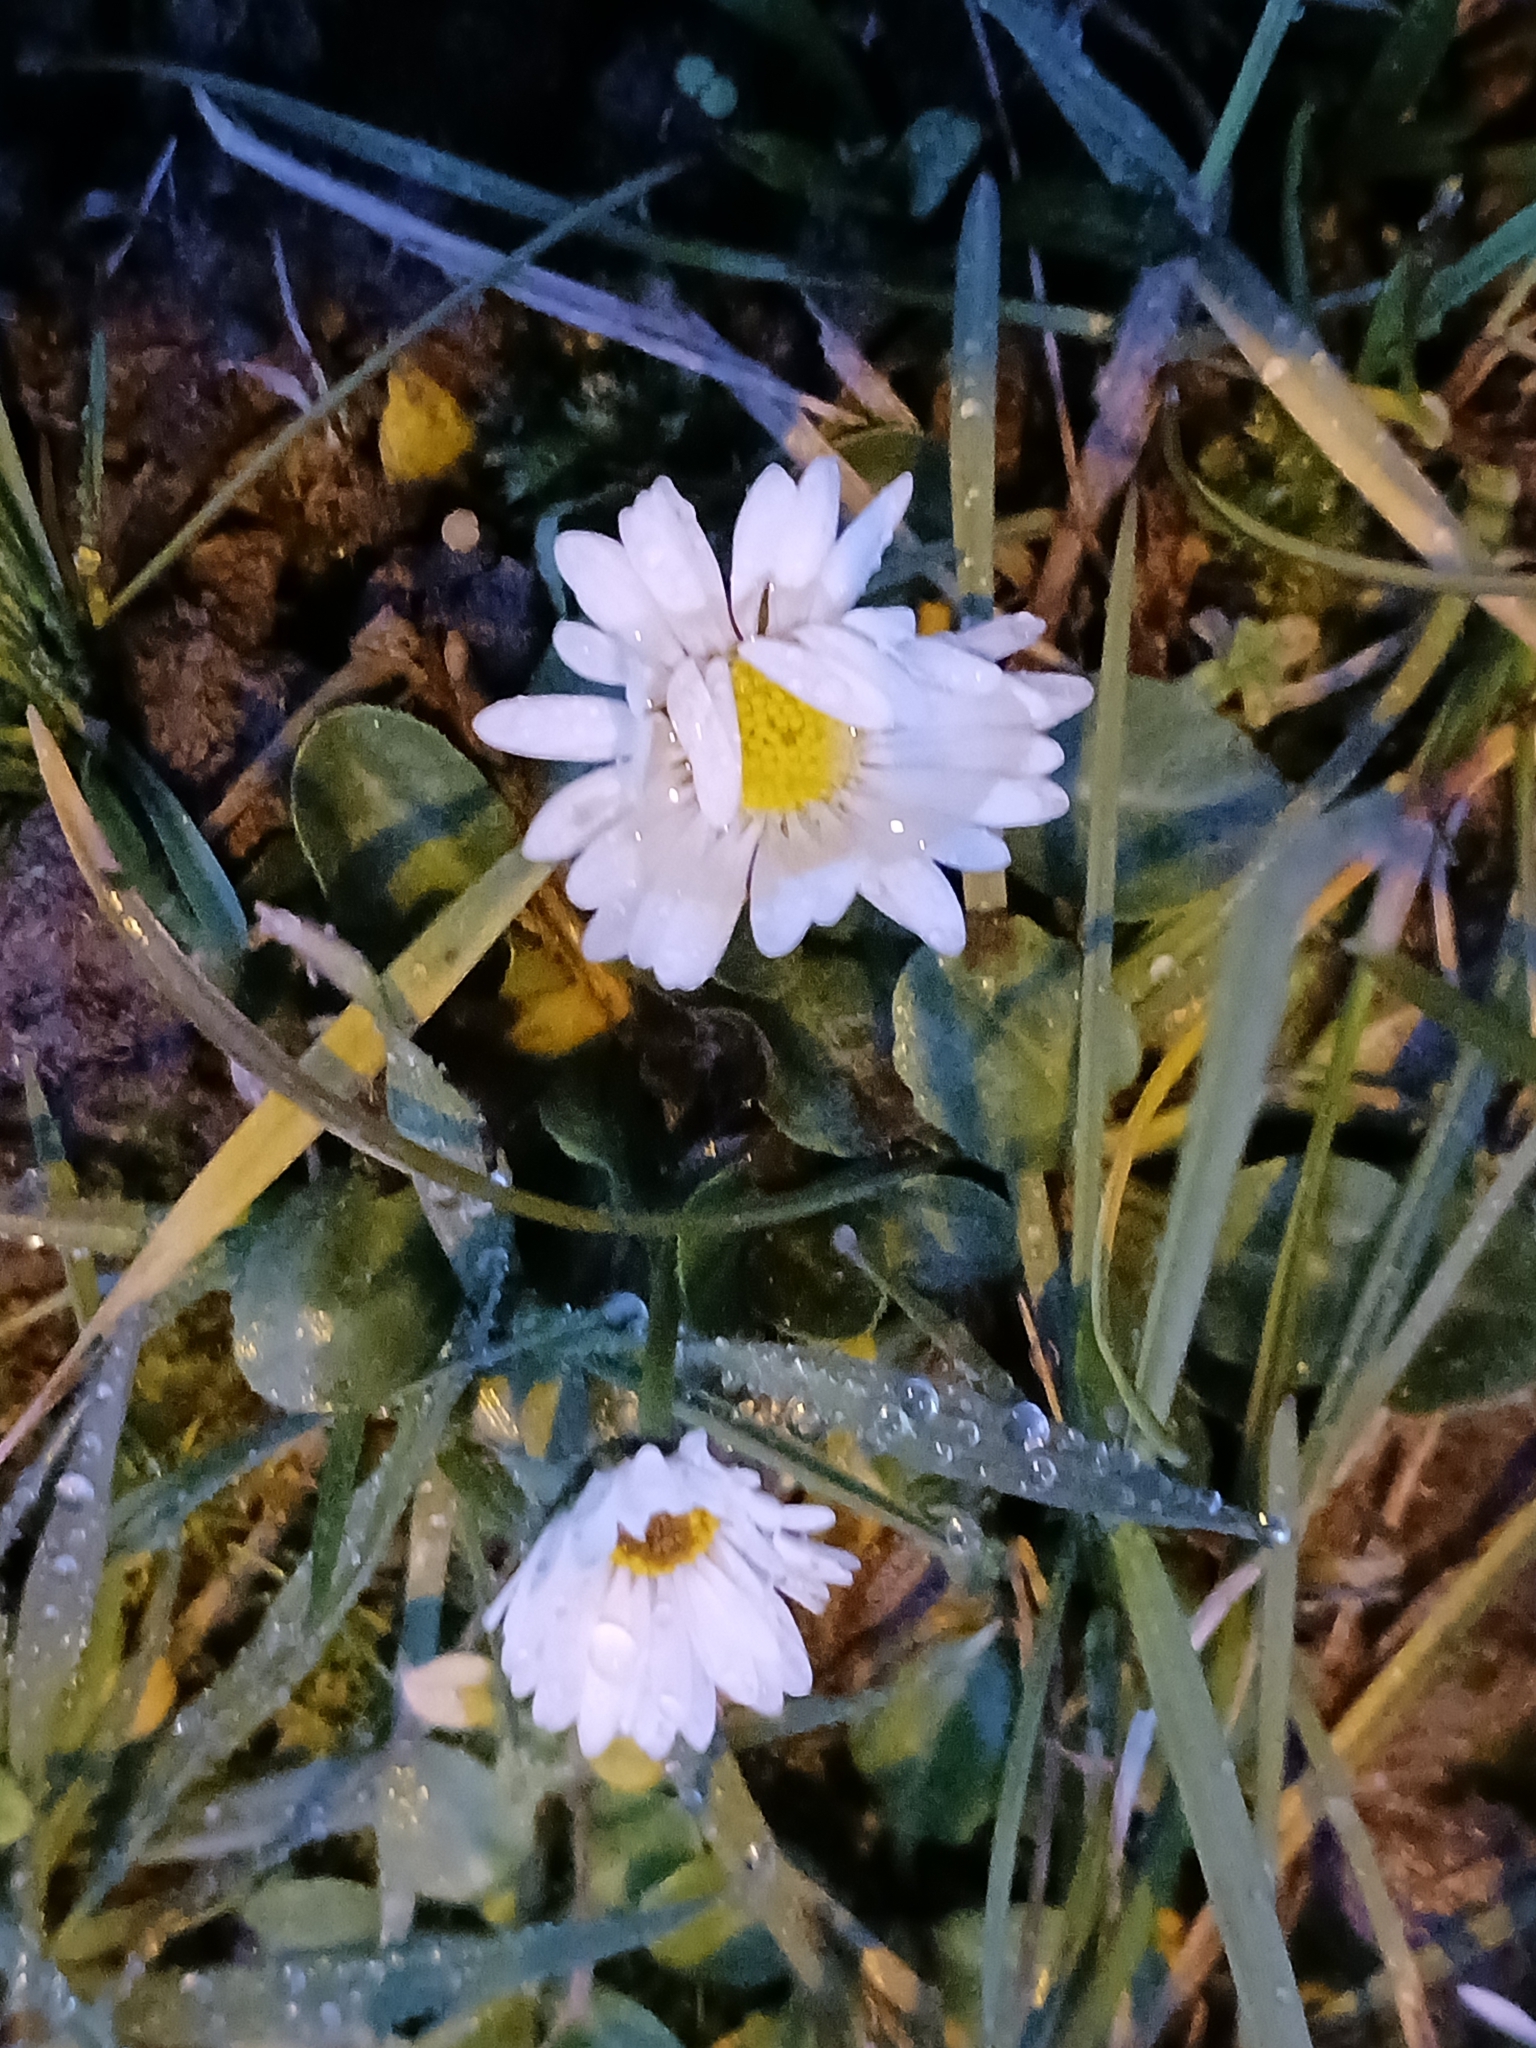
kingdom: Plantae
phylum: Tracheophyta
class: Magnoliopsida
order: Asterales
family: Asteraceae
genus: Bellis
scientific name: Bellis perennis
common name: Lawndaisy
